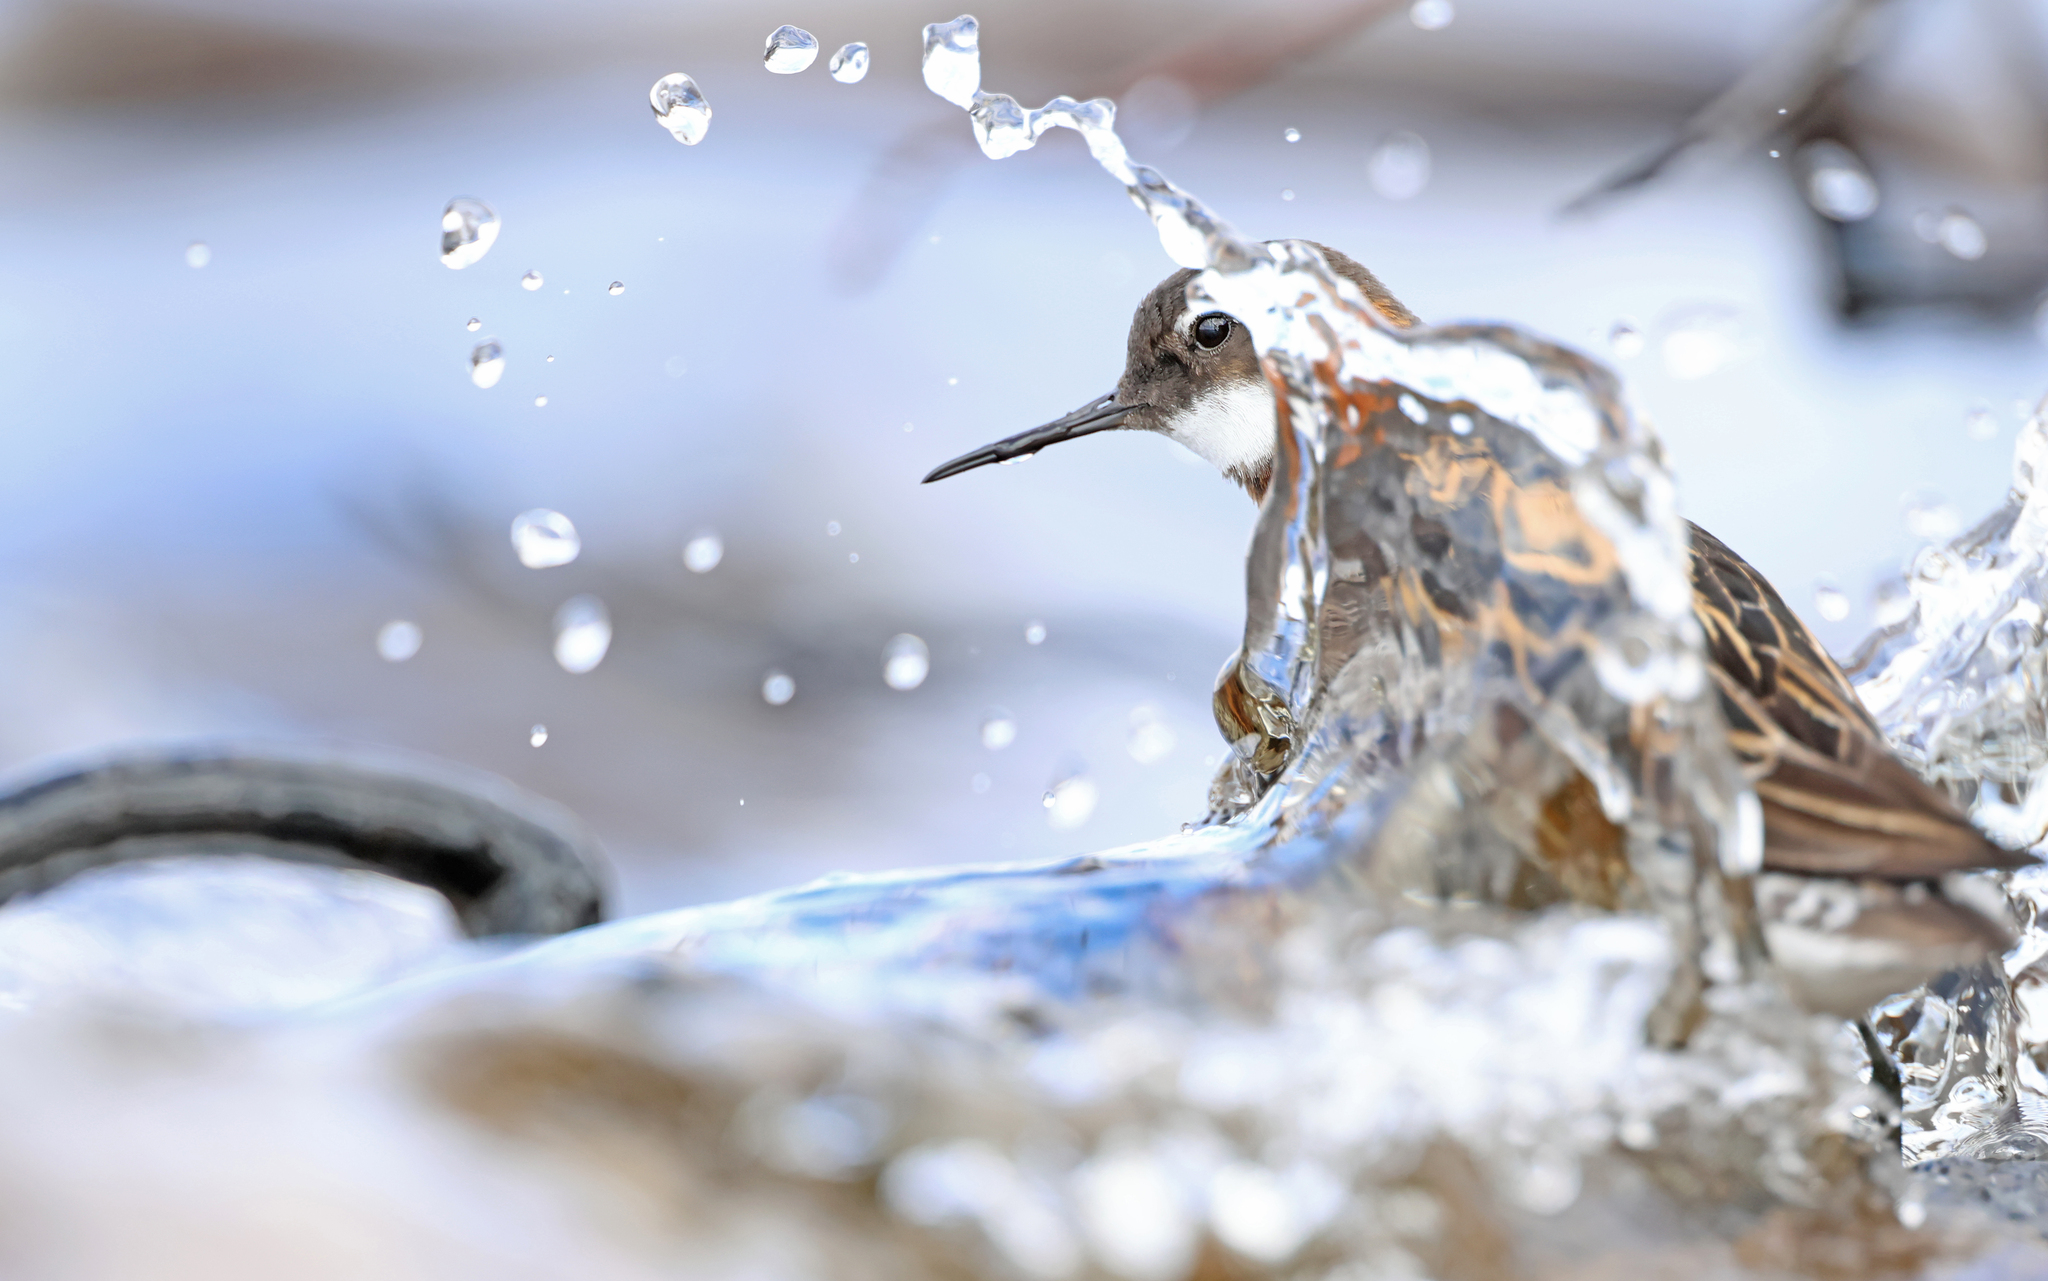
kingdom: Animalia
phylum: Chordata
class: Aves
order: Charadriiformes
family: Scolopacidae
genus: Phalaropus
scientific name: Phalaropus lobatus
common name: Red-necked phalarope
